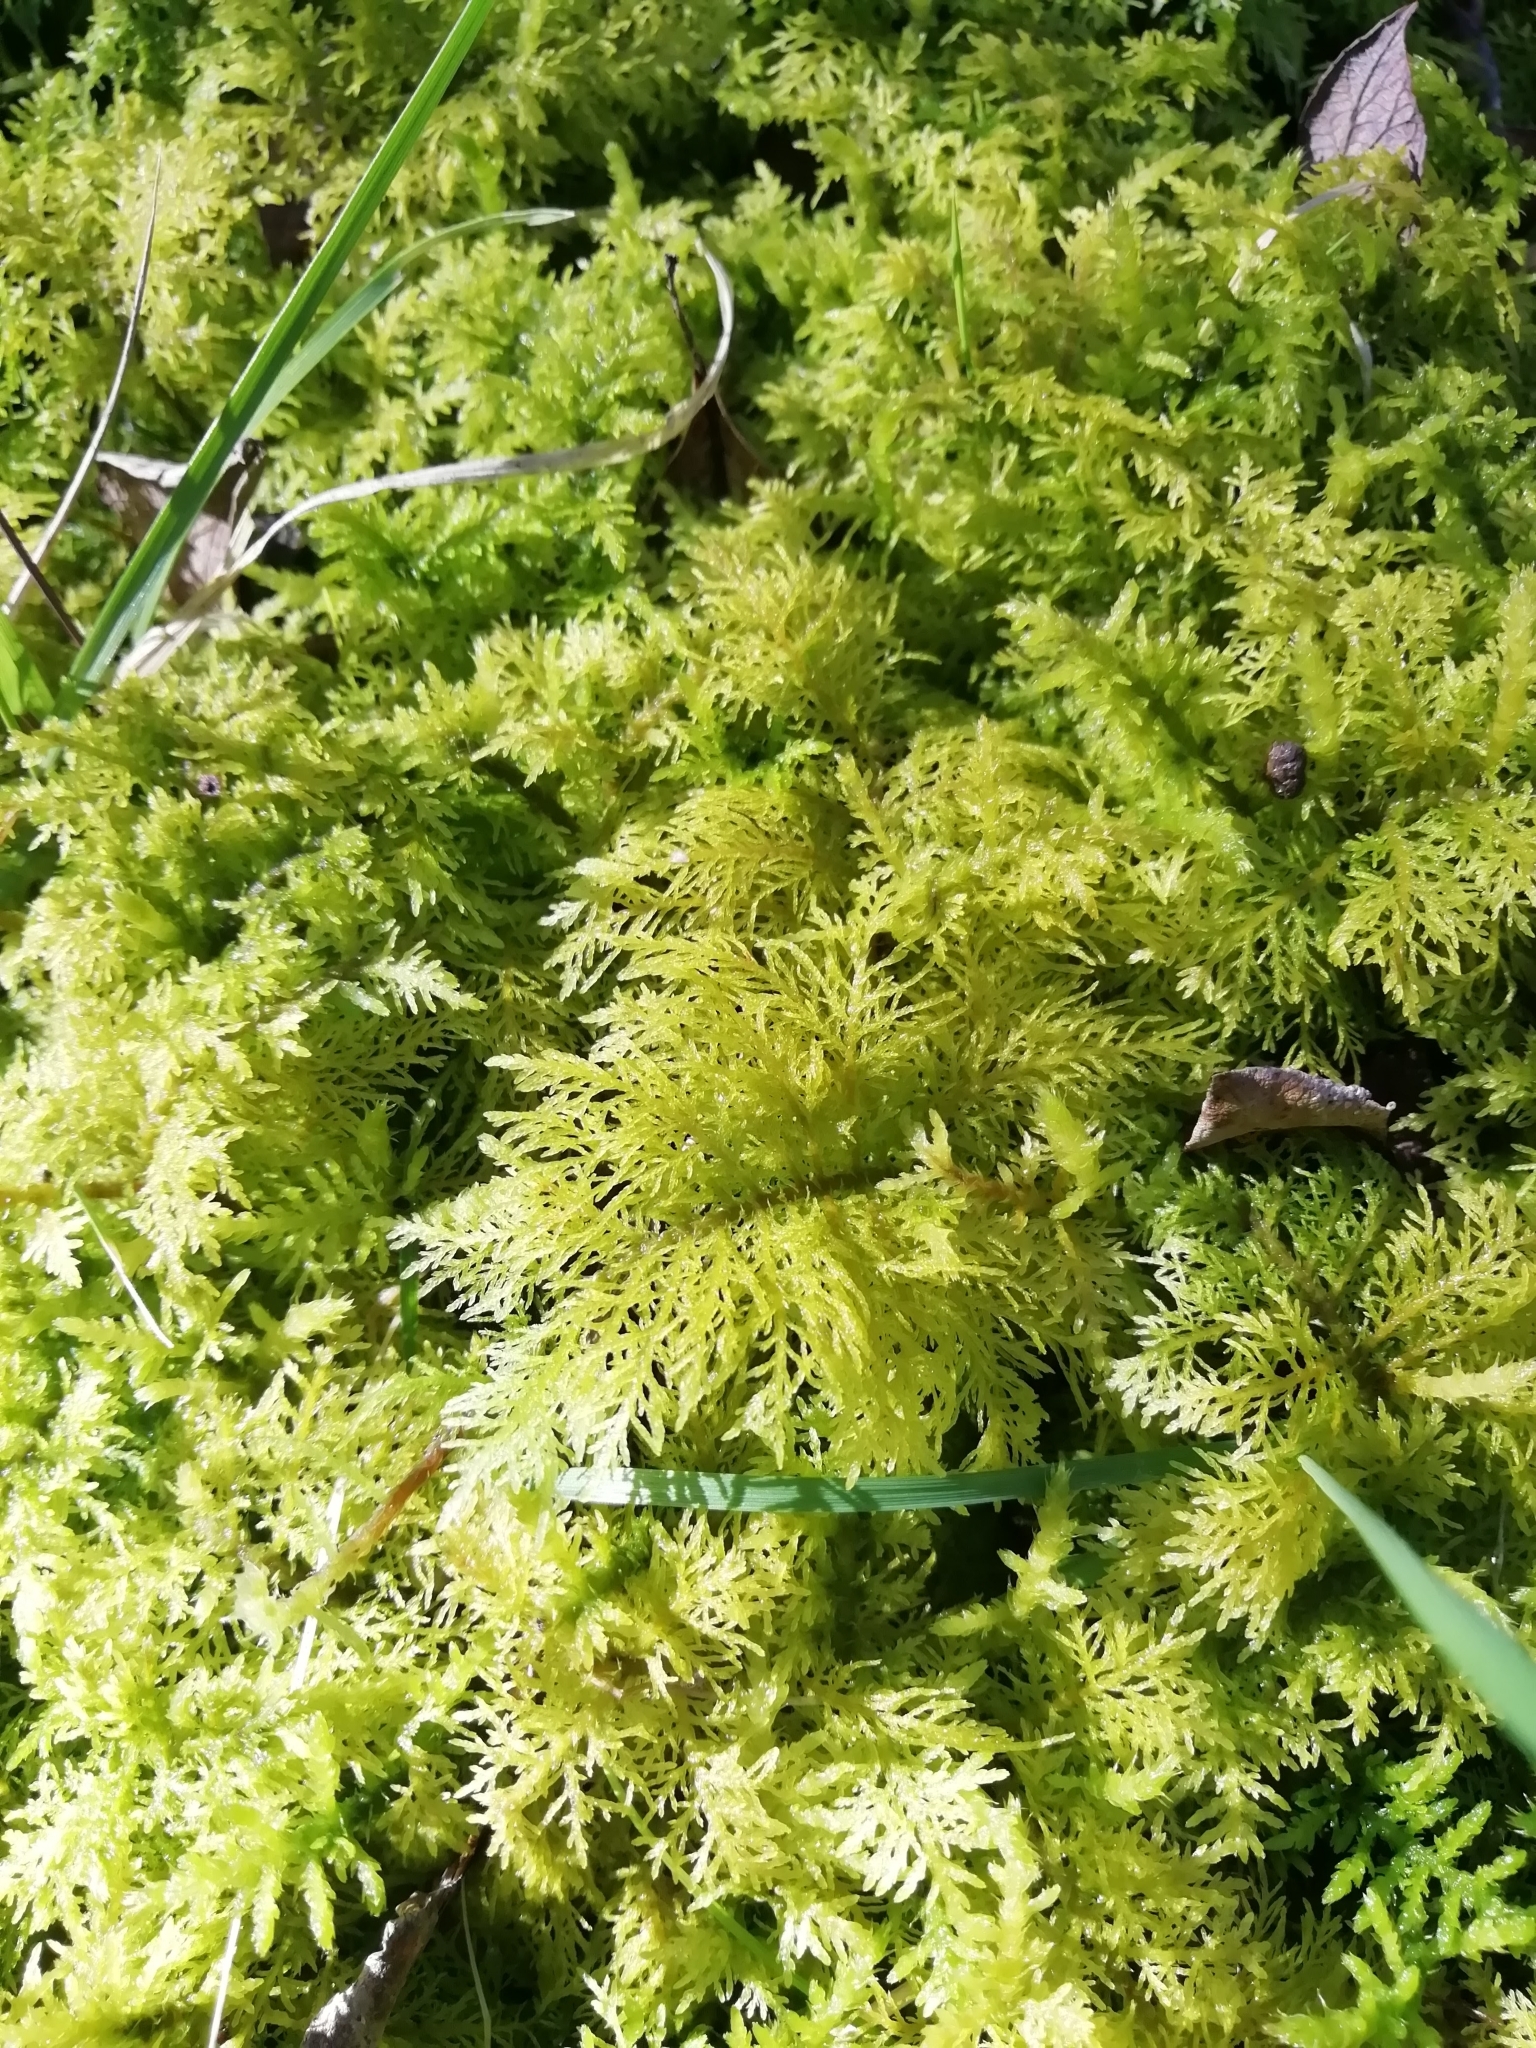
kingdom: Plantae
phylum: Bryophyta
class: Bryopsida
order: Hypnales
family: Thuidiaceae
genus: Thuidium
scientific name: Thuidium tamariscinum
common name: Common tamarisk-moss
